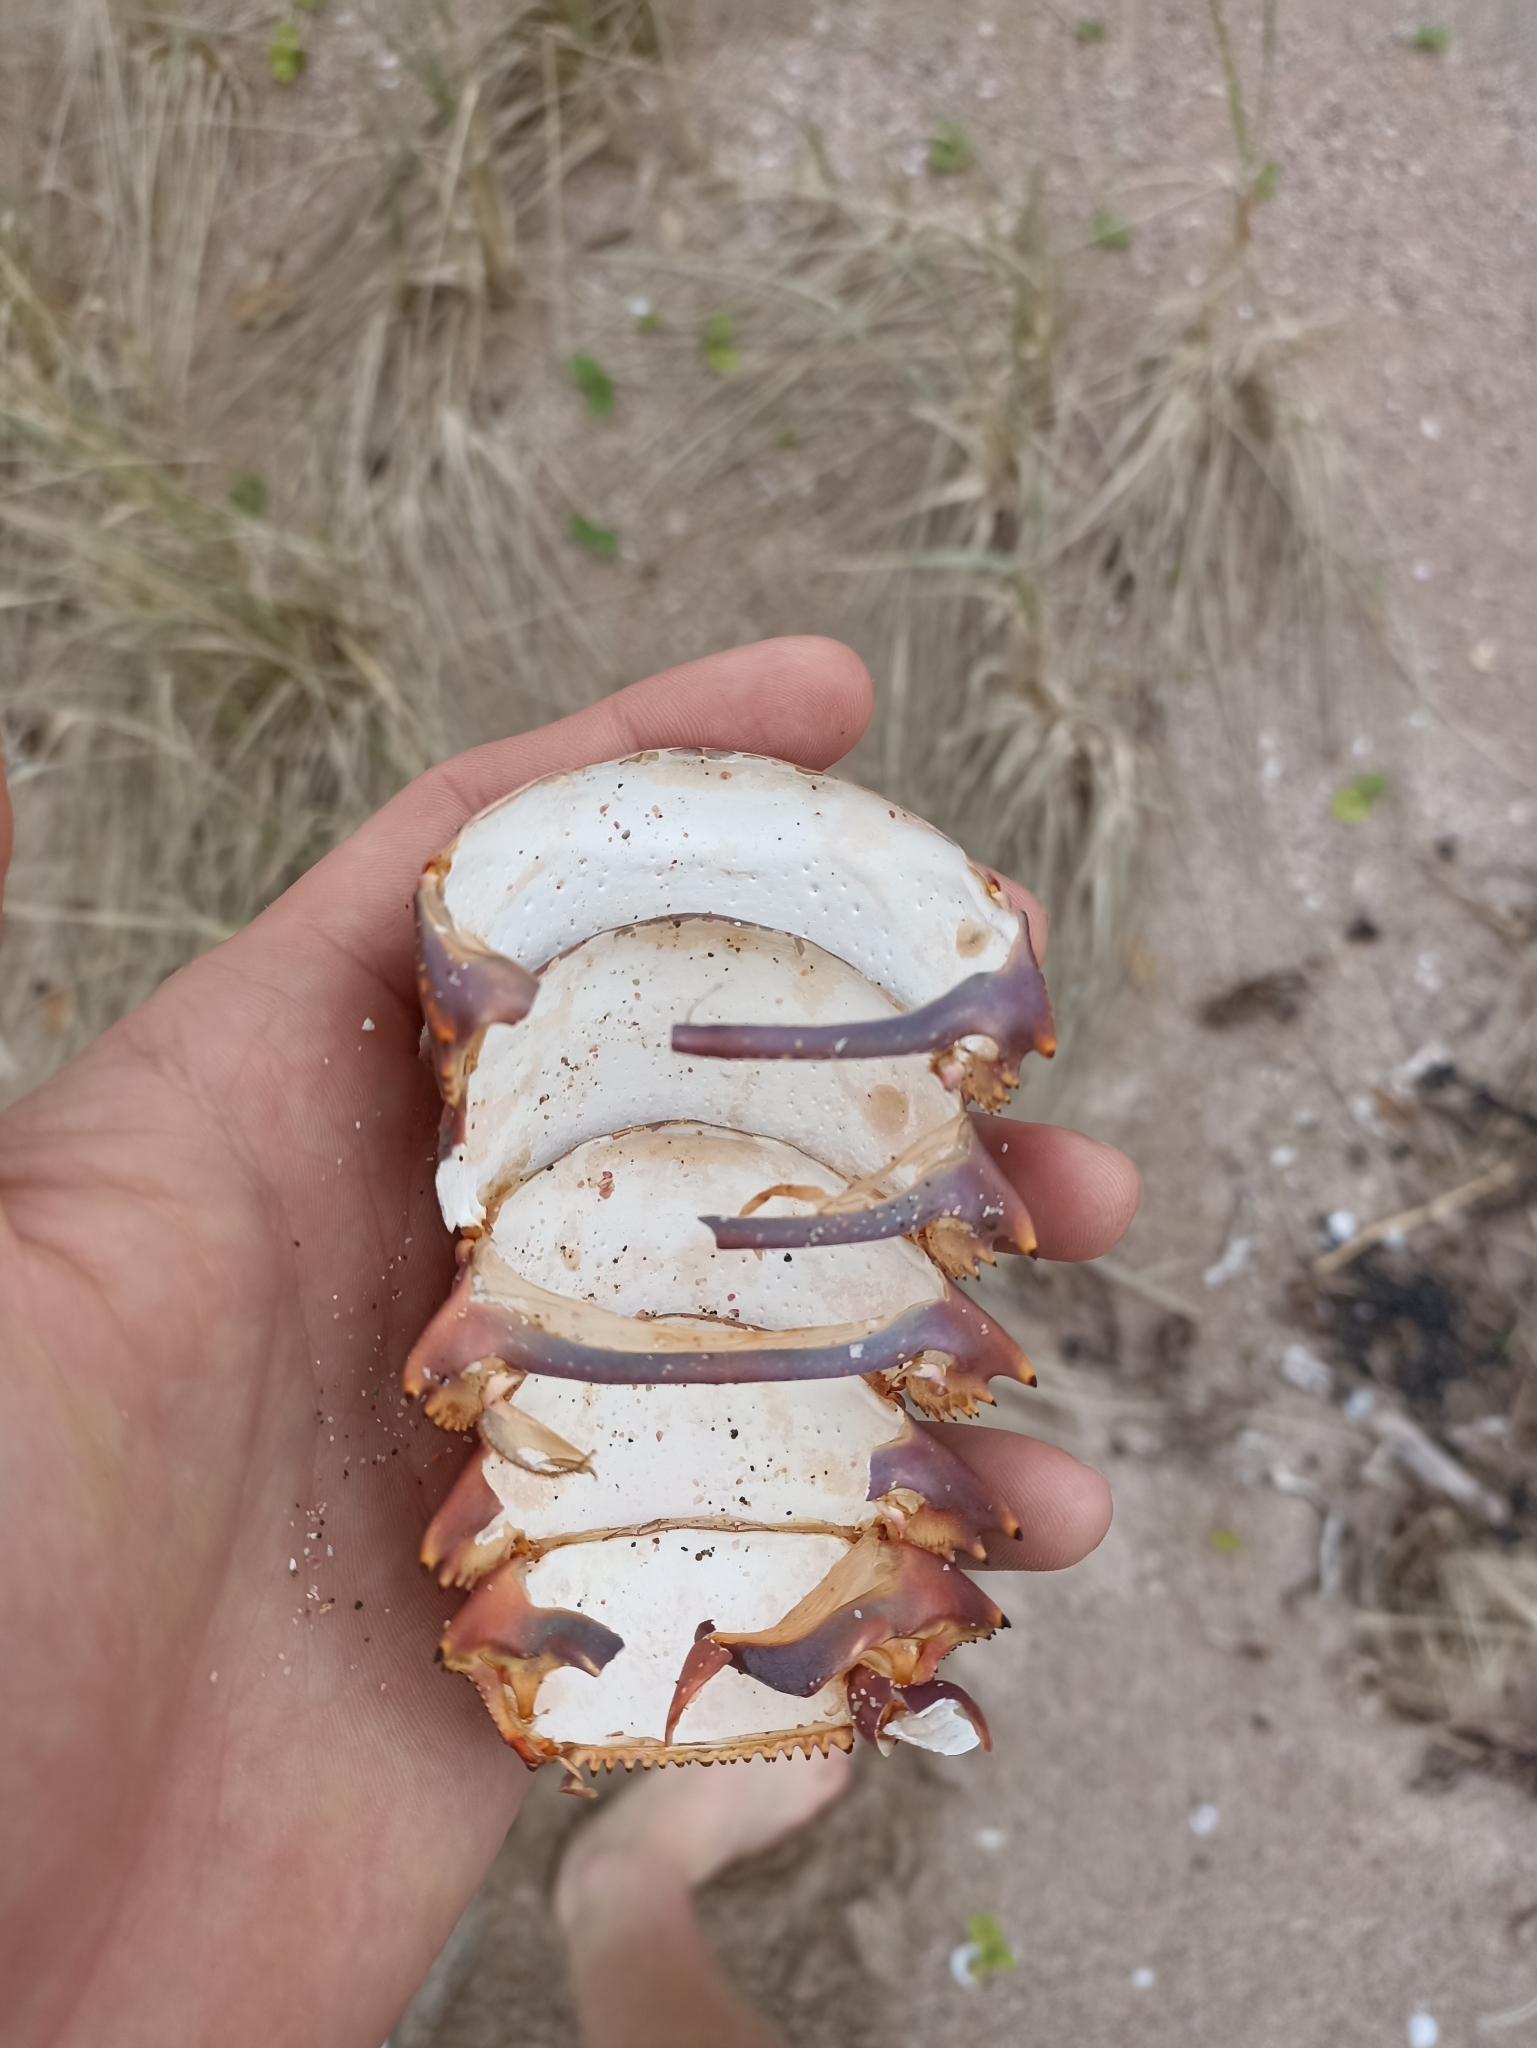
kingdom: Animalia
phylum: Arthropoda
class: Malacostraca
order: Decapoda
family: Palinuridae
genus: Sagmariasus
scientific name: Sagmariasus verreauxi
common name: Green rock lobster
